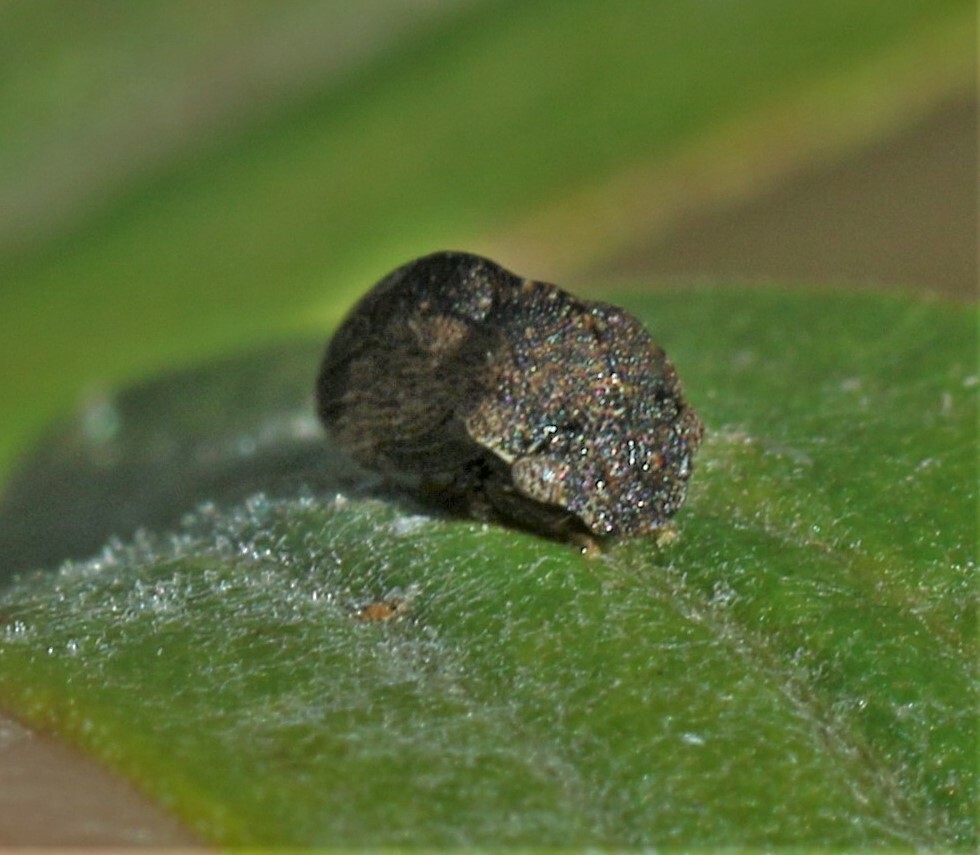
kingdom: Animalia
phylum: Arthropoda
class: Insecta
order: Hemiptera
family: Membracidae
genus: Publilia
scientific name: Publilia concava
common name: Aster treehopper
